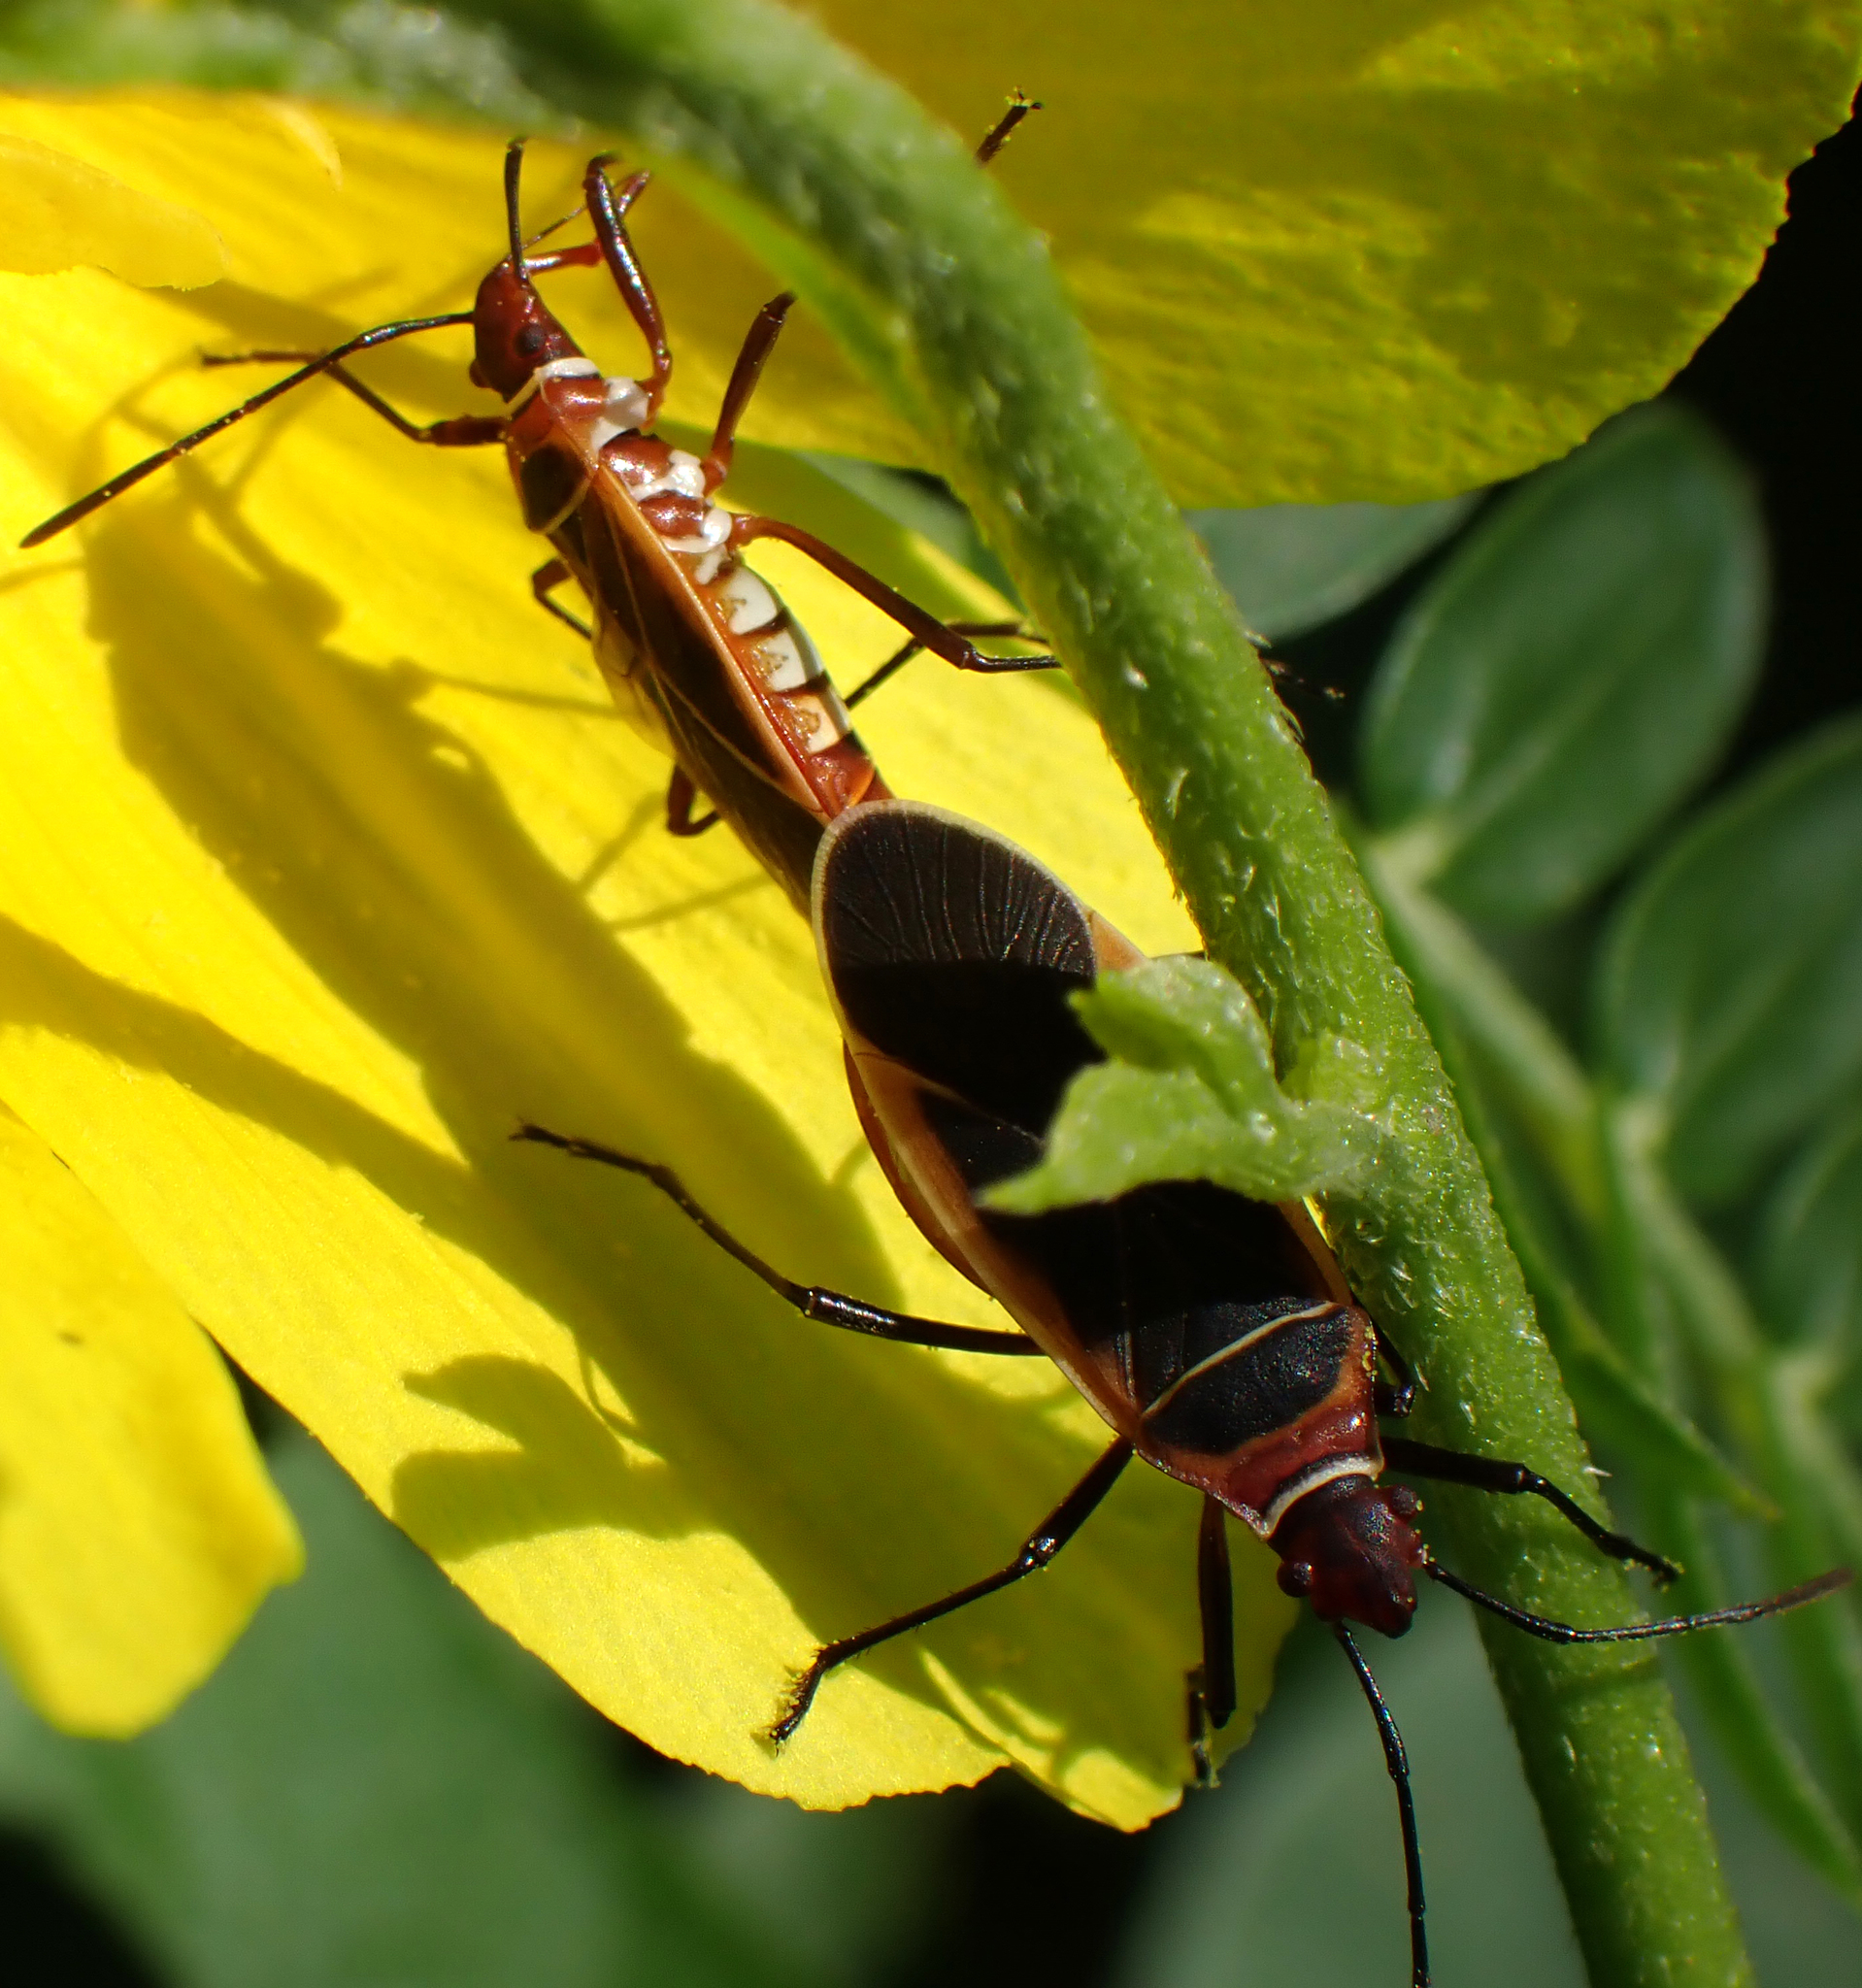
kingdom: Animalia
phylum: Arthropoda
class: Insecta
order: Hemiptera
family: Pyrrhocoridae
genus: Dysdercus
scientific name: Dysdercus mimulus
